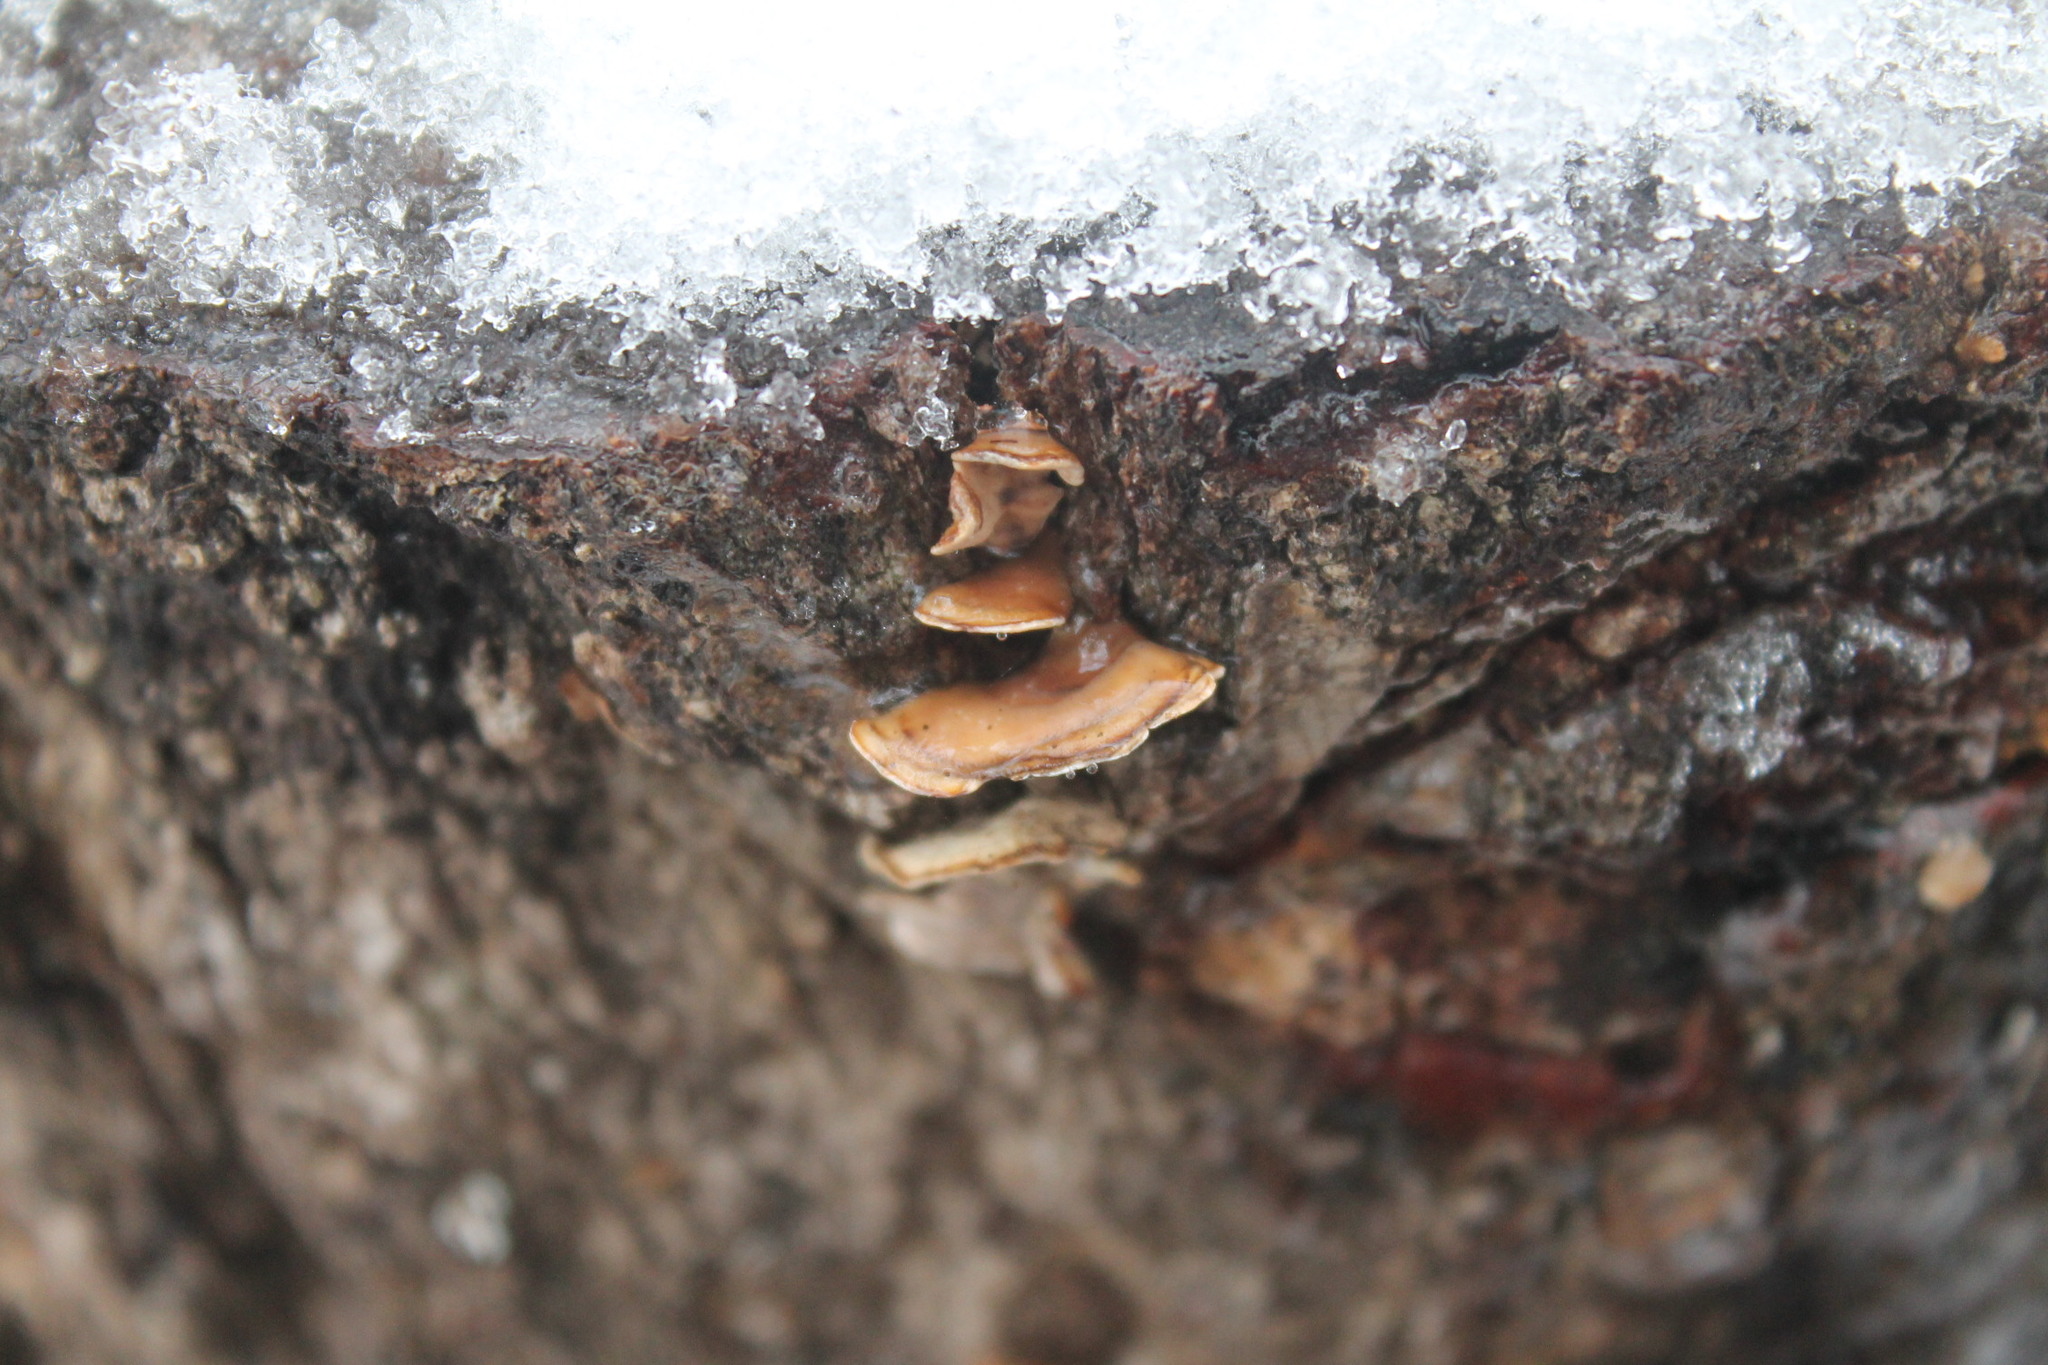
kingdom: Fungi
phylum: Basidiomycota
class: Agaricomycetes
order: Russulales
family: Stereaceae
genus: Stereum
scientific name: Stereum lobatum
